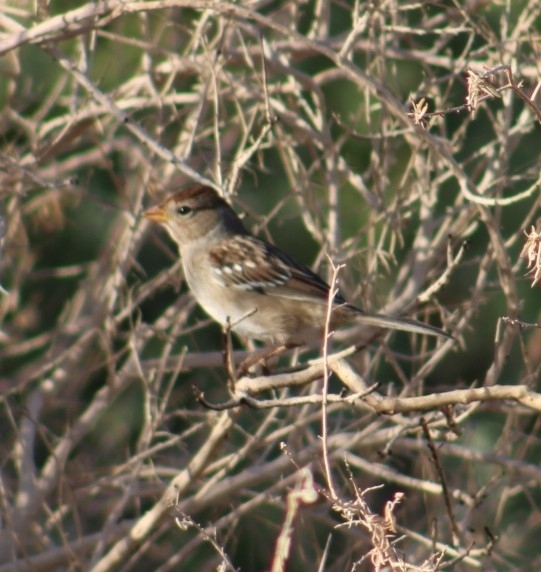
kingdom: Animalia
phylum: Chordata
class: Aves
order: Passeriformes
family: Passerellidae
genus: Zonotrichia
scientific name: Zonotrichia leucophrys
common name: White-crowned sparrow
